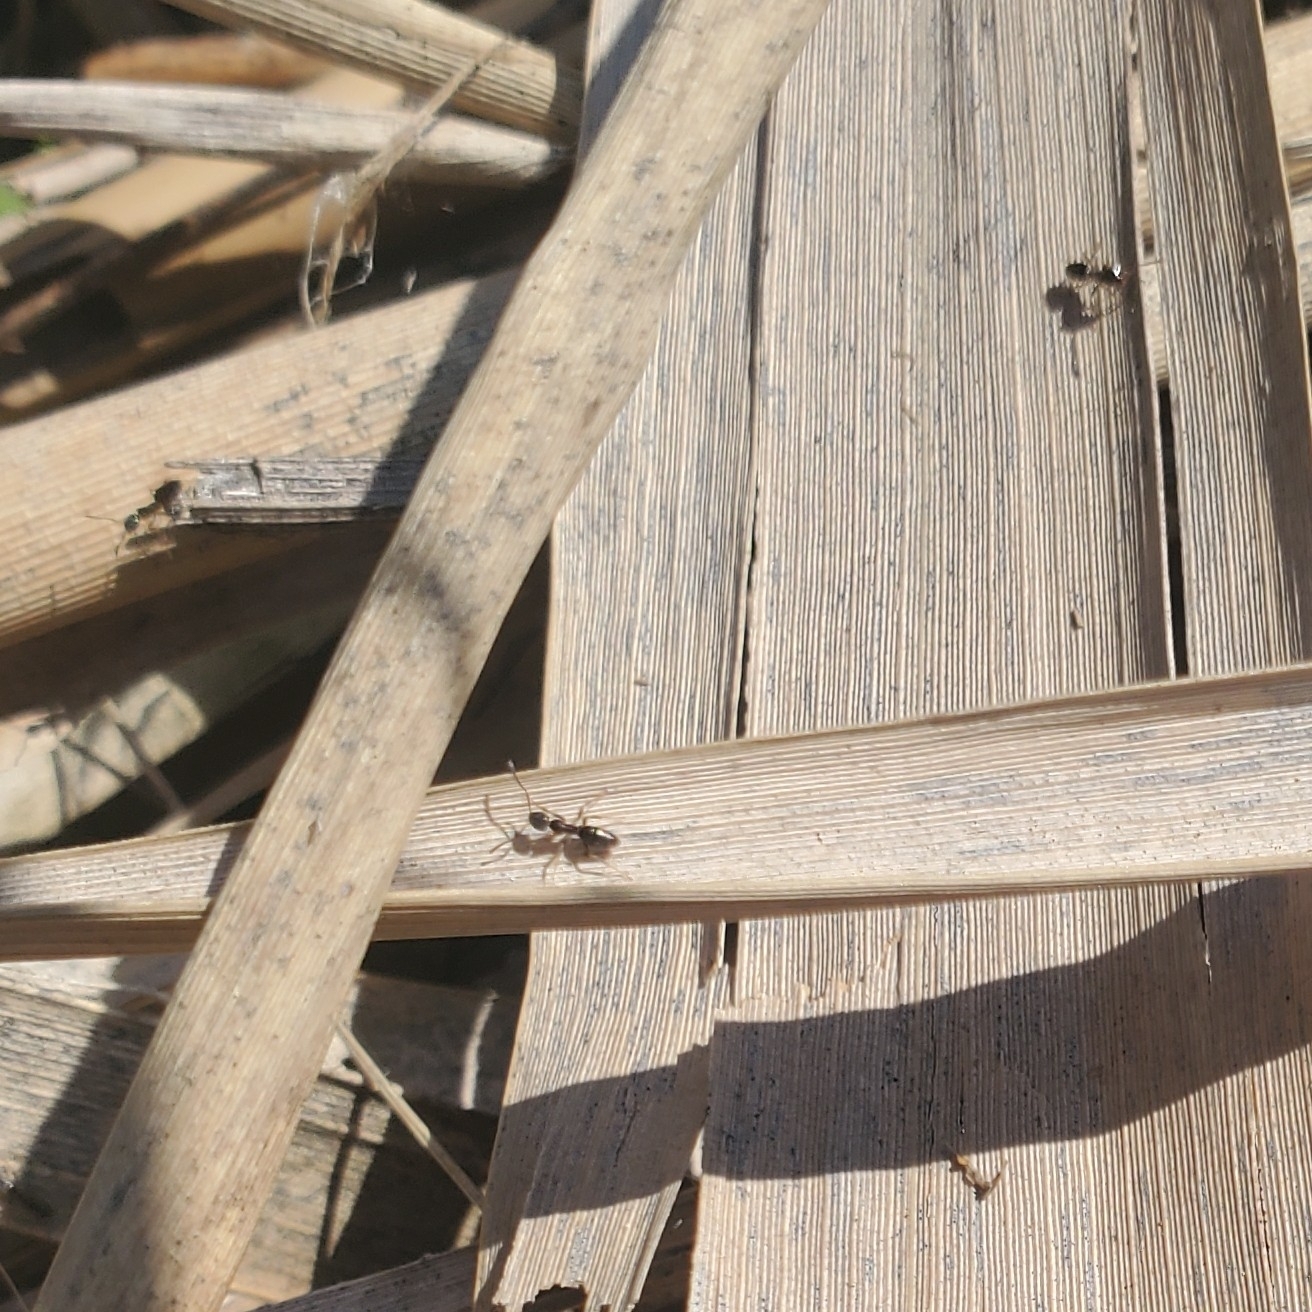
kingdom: Animalia
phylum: Arthropoda
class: Insecta
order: Hymenoptera
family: Formicidae
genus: Tapinoma
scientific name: Tapinoma sessile
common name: Odorous house ant
